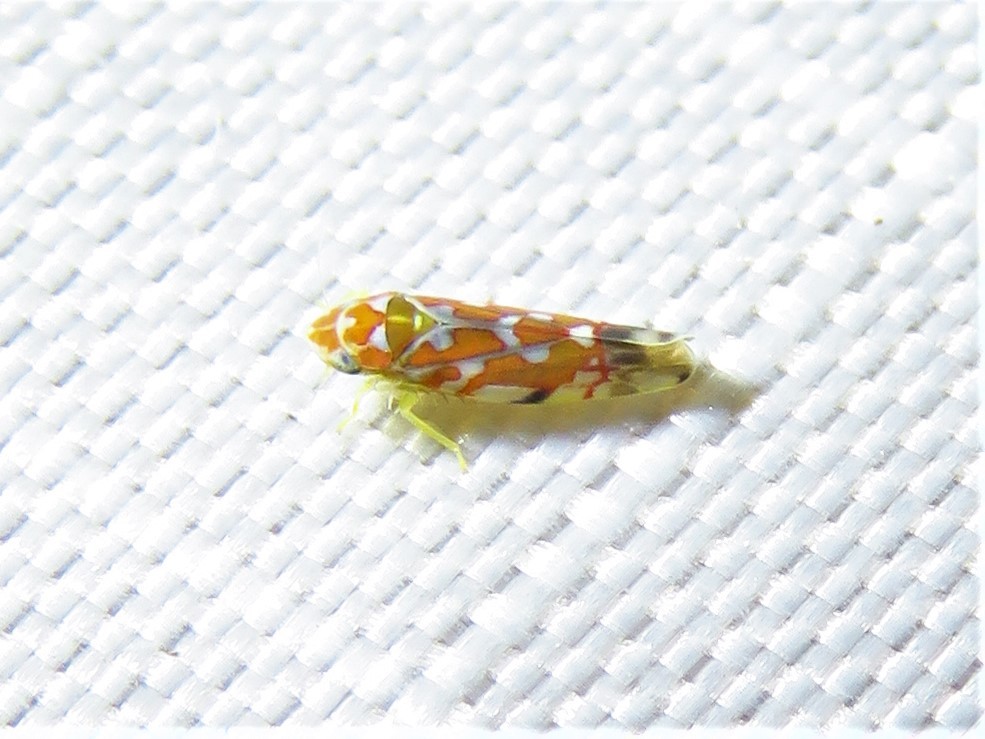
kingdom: Animalia
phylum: Arthropoda
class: Insecta
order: Hemiptera
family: Cicadellidae
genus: Erythroneura
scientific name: Erythroneura rubra
